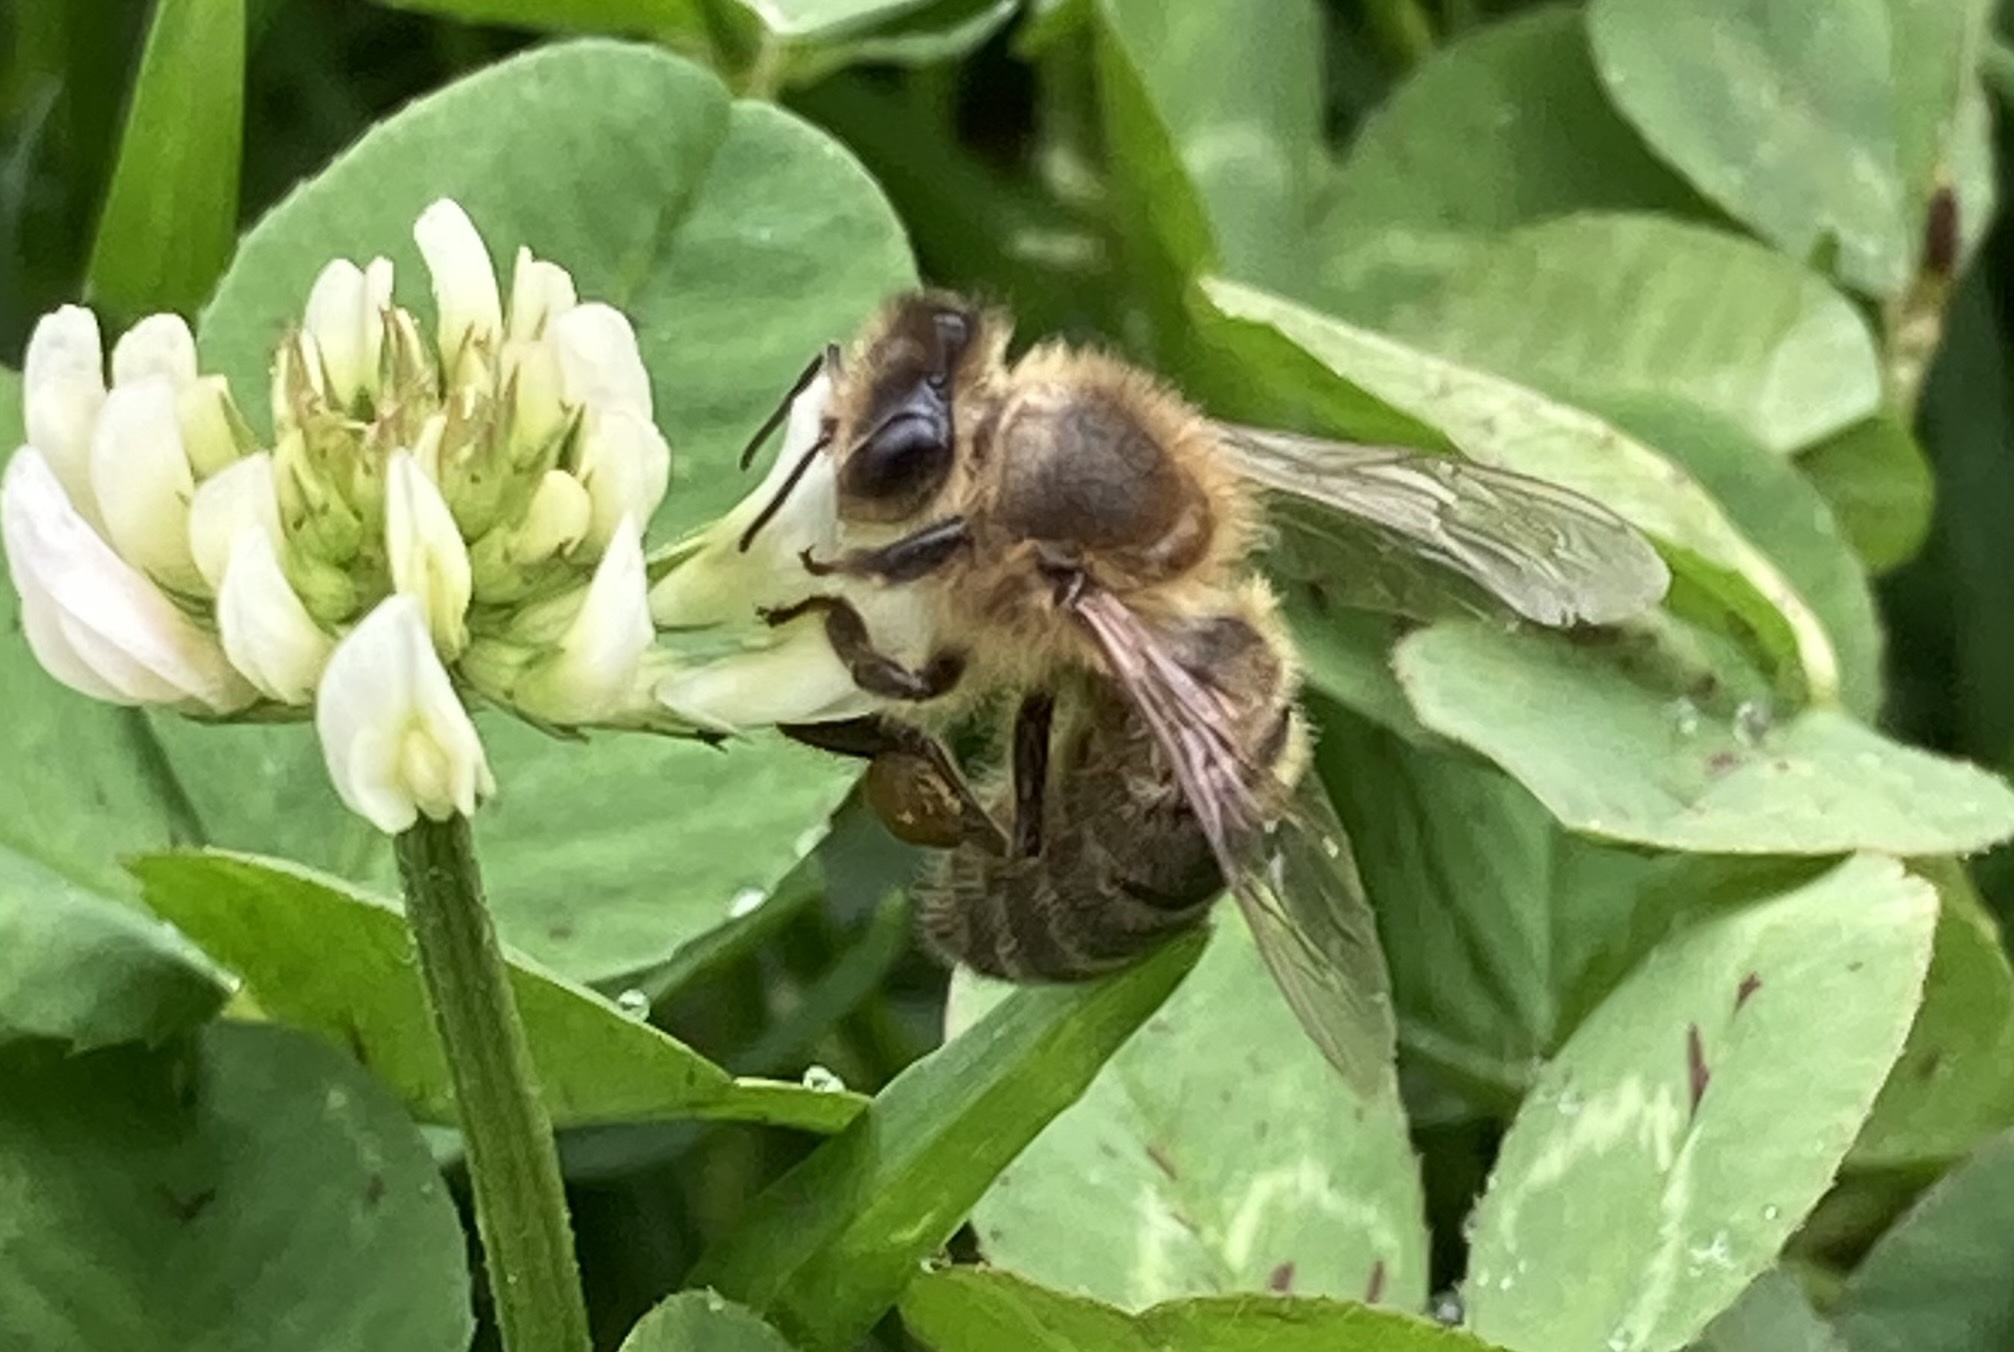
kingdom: Animalia
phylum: Arthropoda
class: Insecta
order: Hymenoptera
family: Apidae
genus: Apis
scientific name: Apis mellifera
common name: Honey bee
